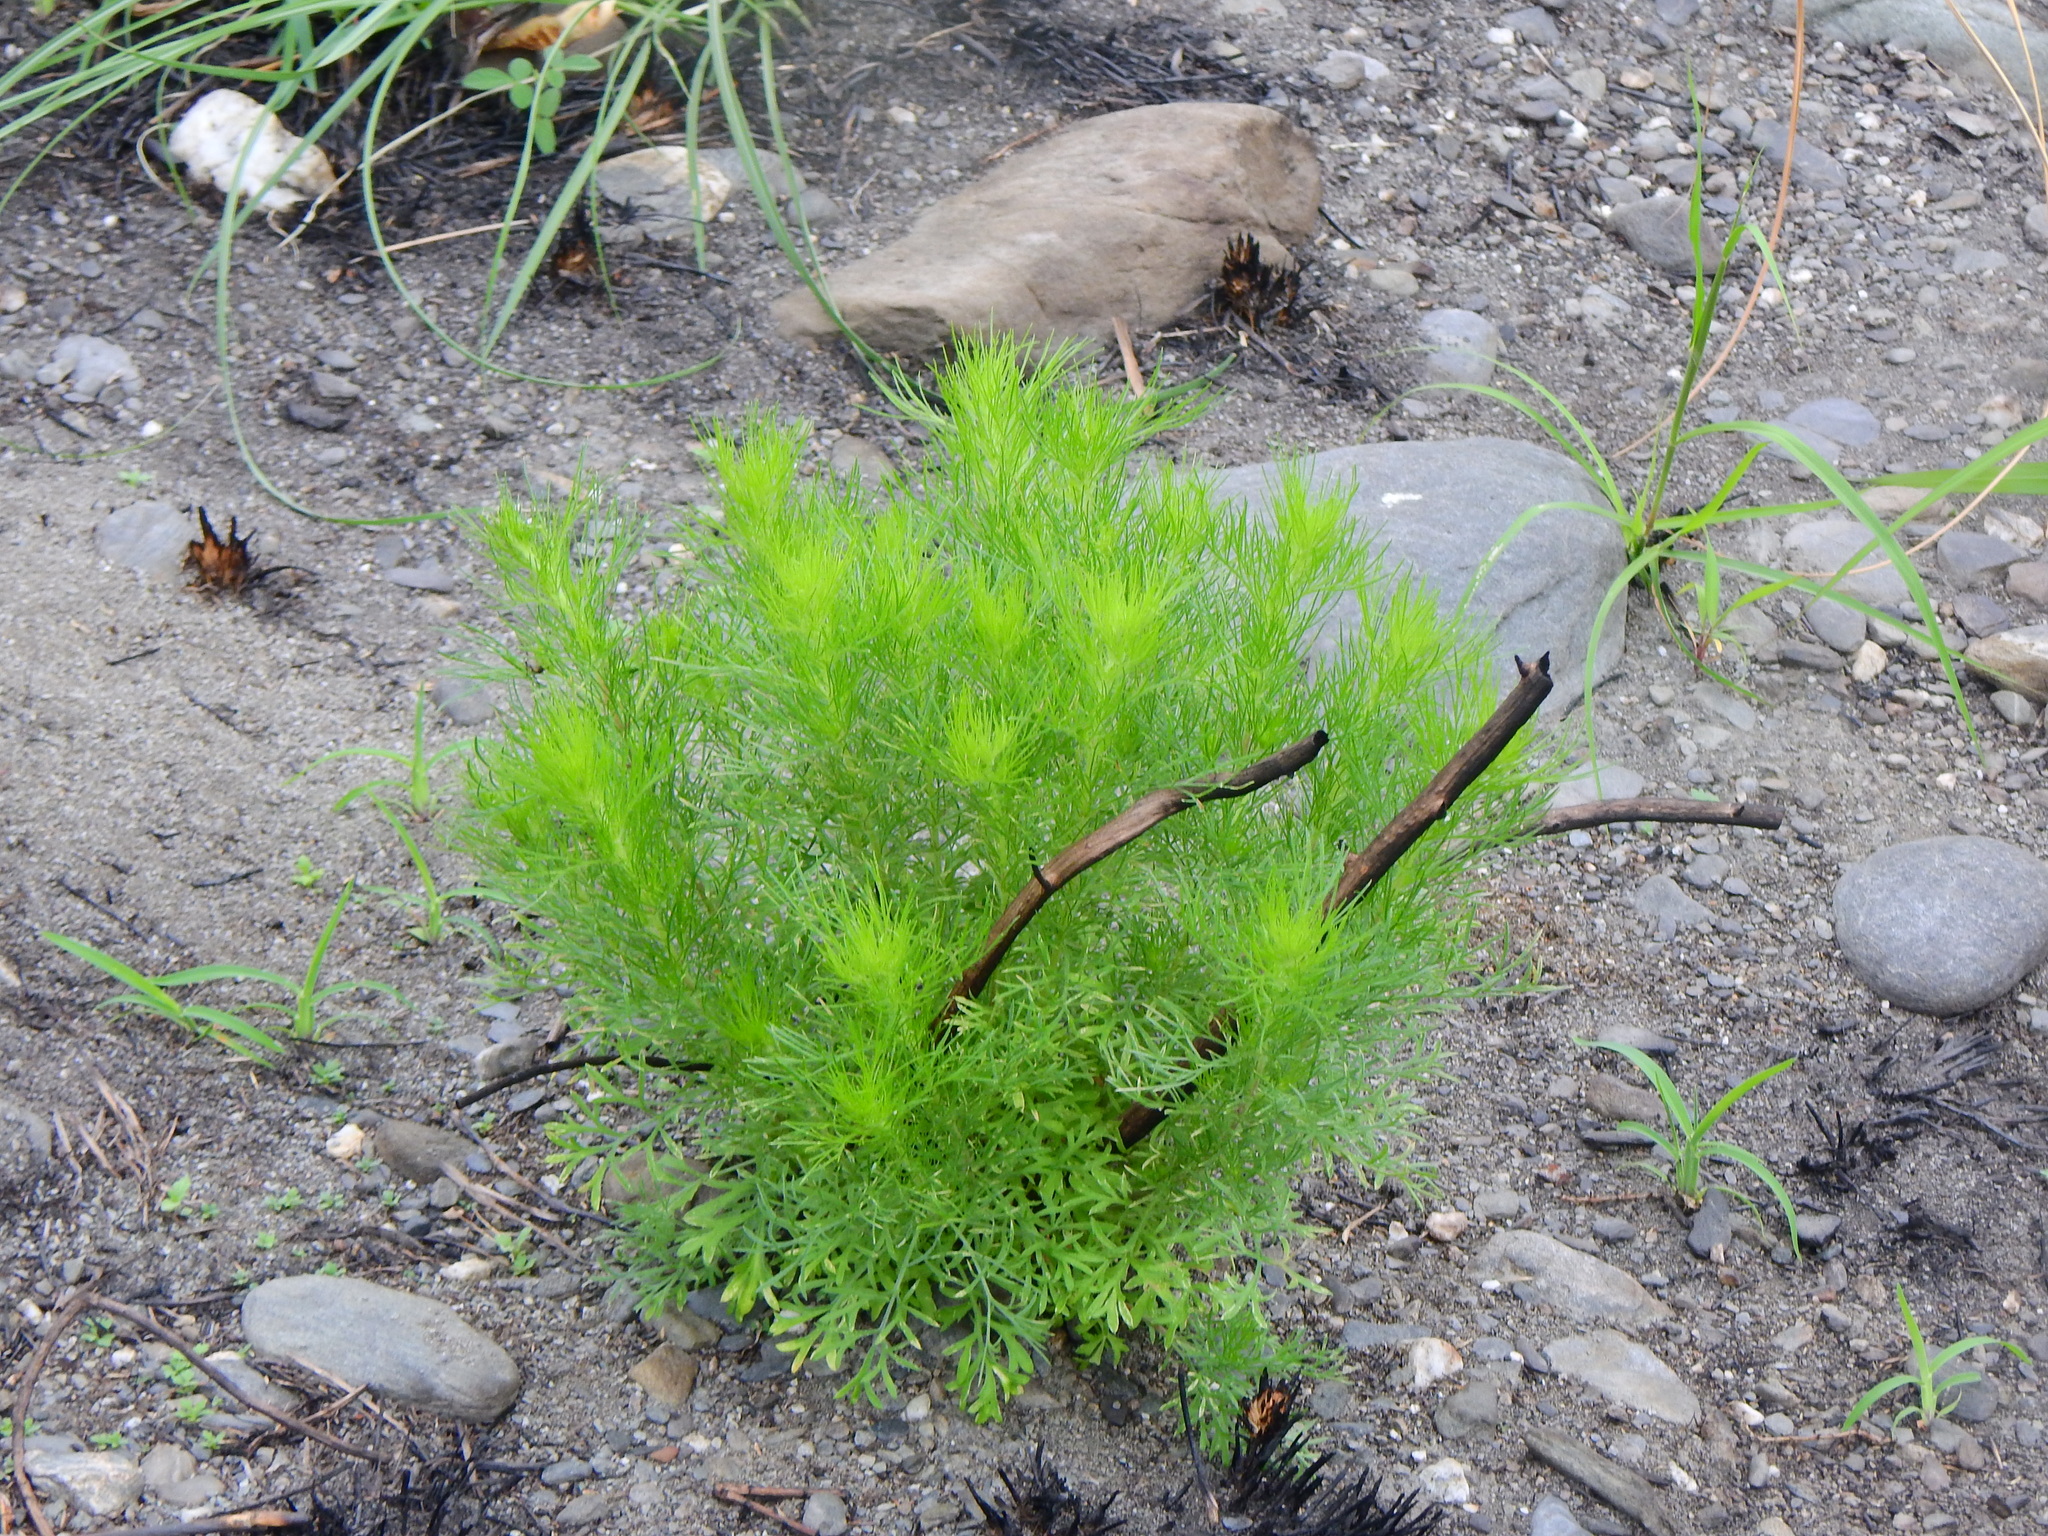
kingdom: Plantae
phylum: Tracheophyta
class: Magnoliopsida
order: Asterales
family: Asteraceae
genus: Artemisia
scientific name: Artemisia capillaris
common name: Yin-chen wormwood
